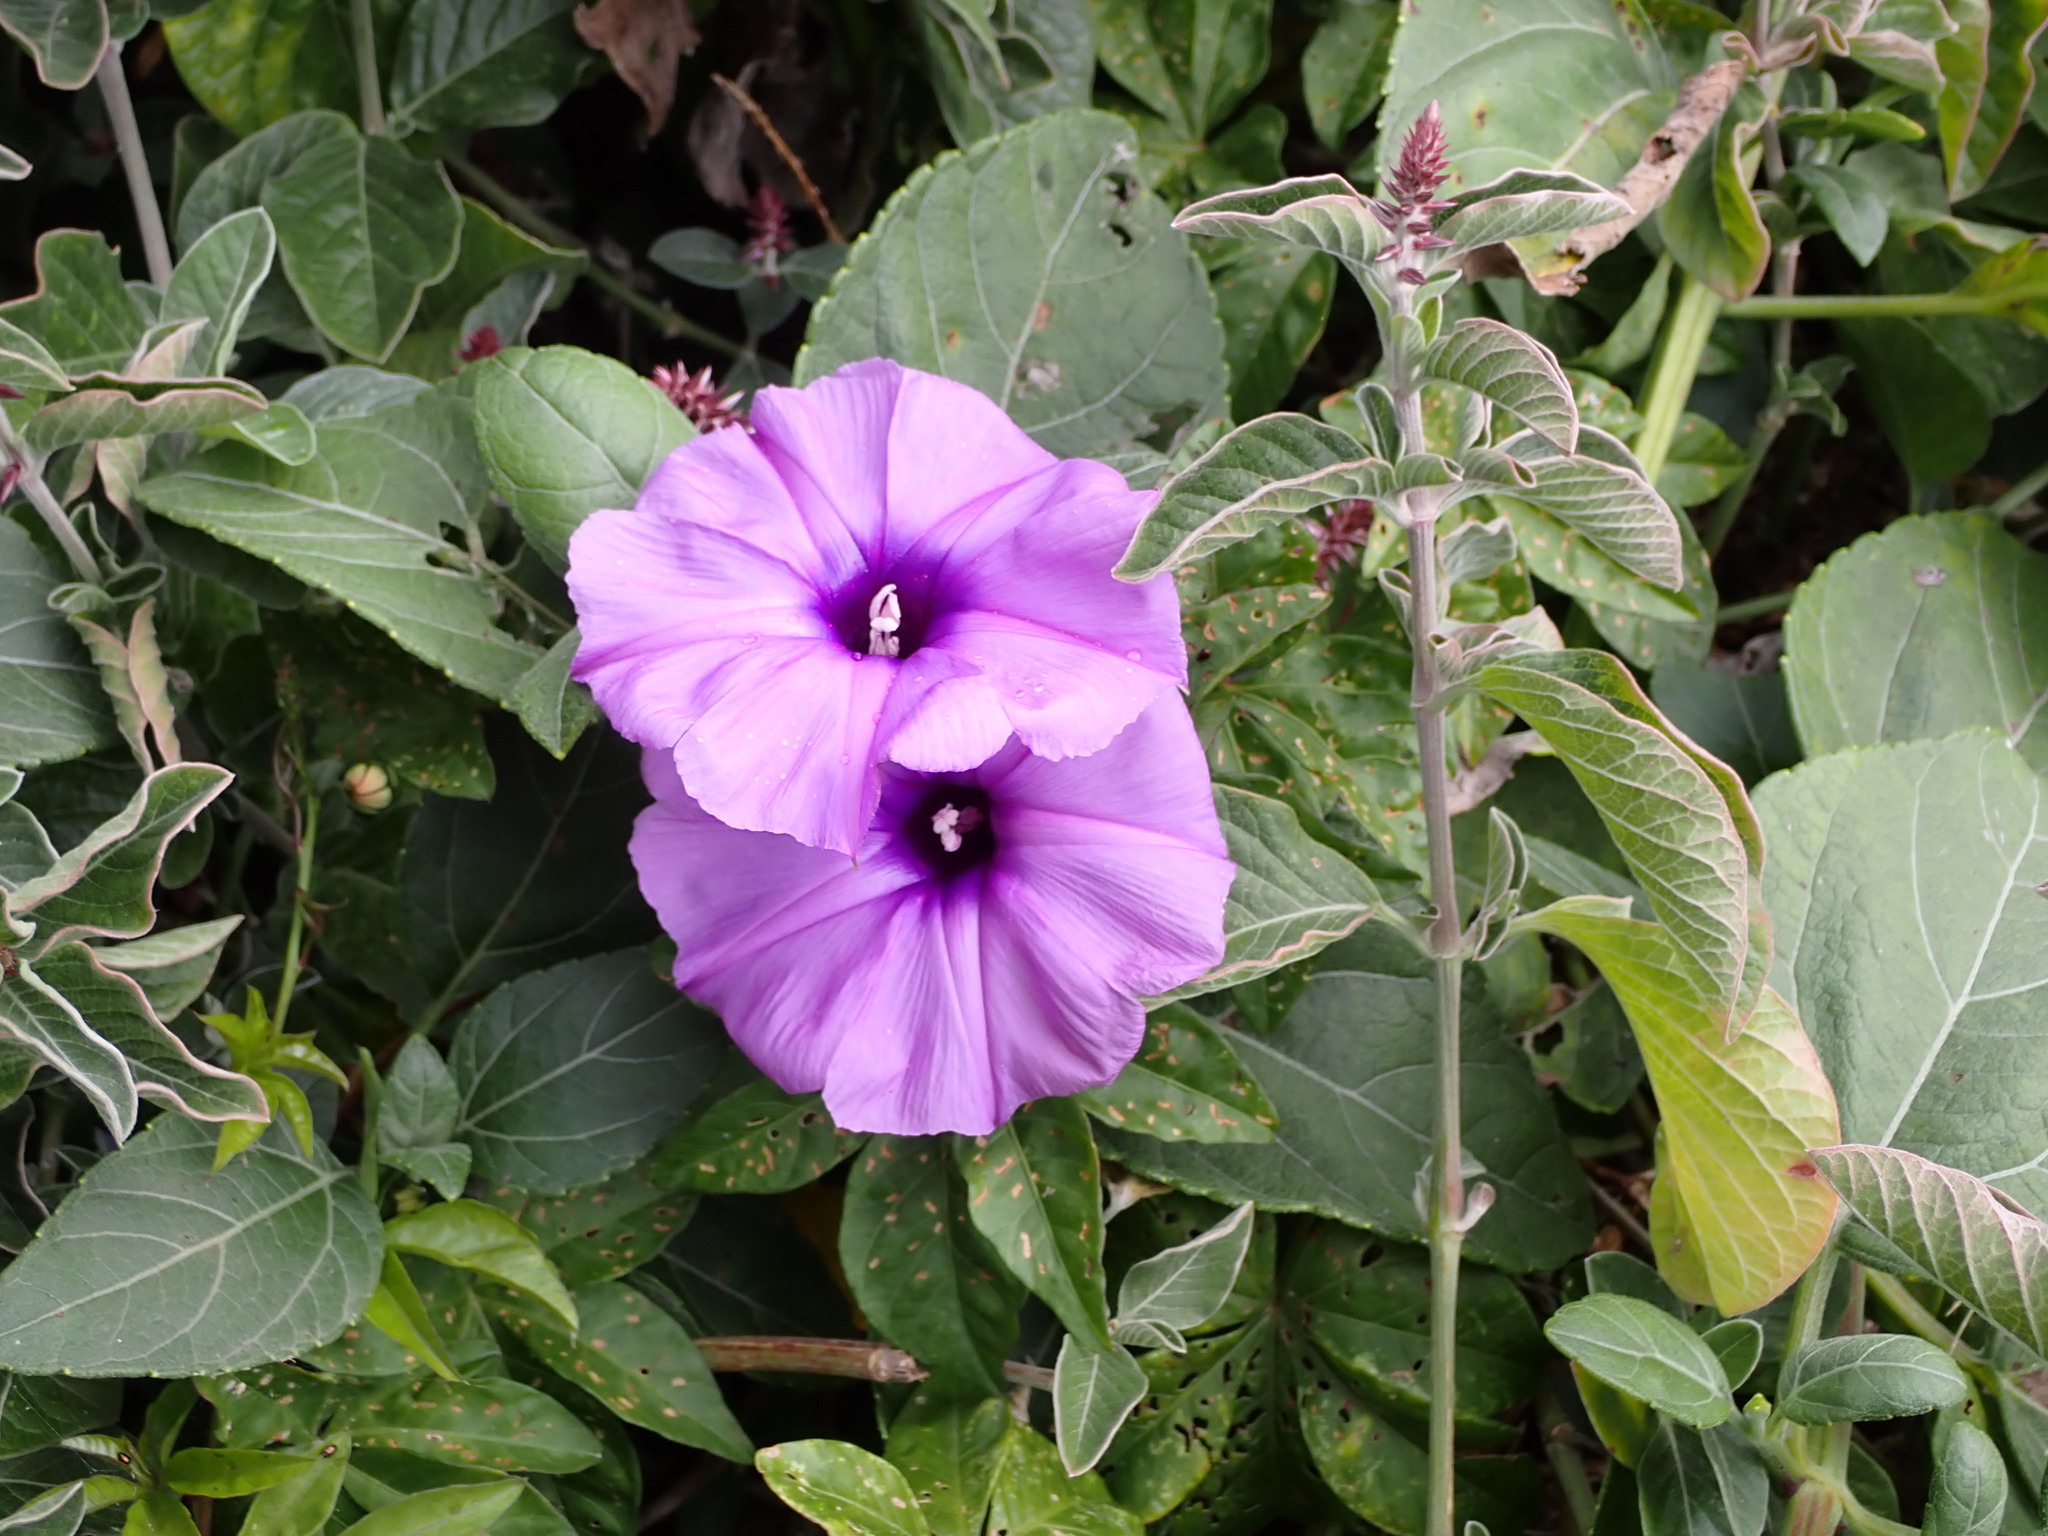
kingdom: Plantae
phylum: Tracheophyta
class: Magnoliopsida
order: Solanales
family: Convolvulaceae
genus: Ipomoea
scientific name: Ipomoea cairica
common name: Mile a minute vine
